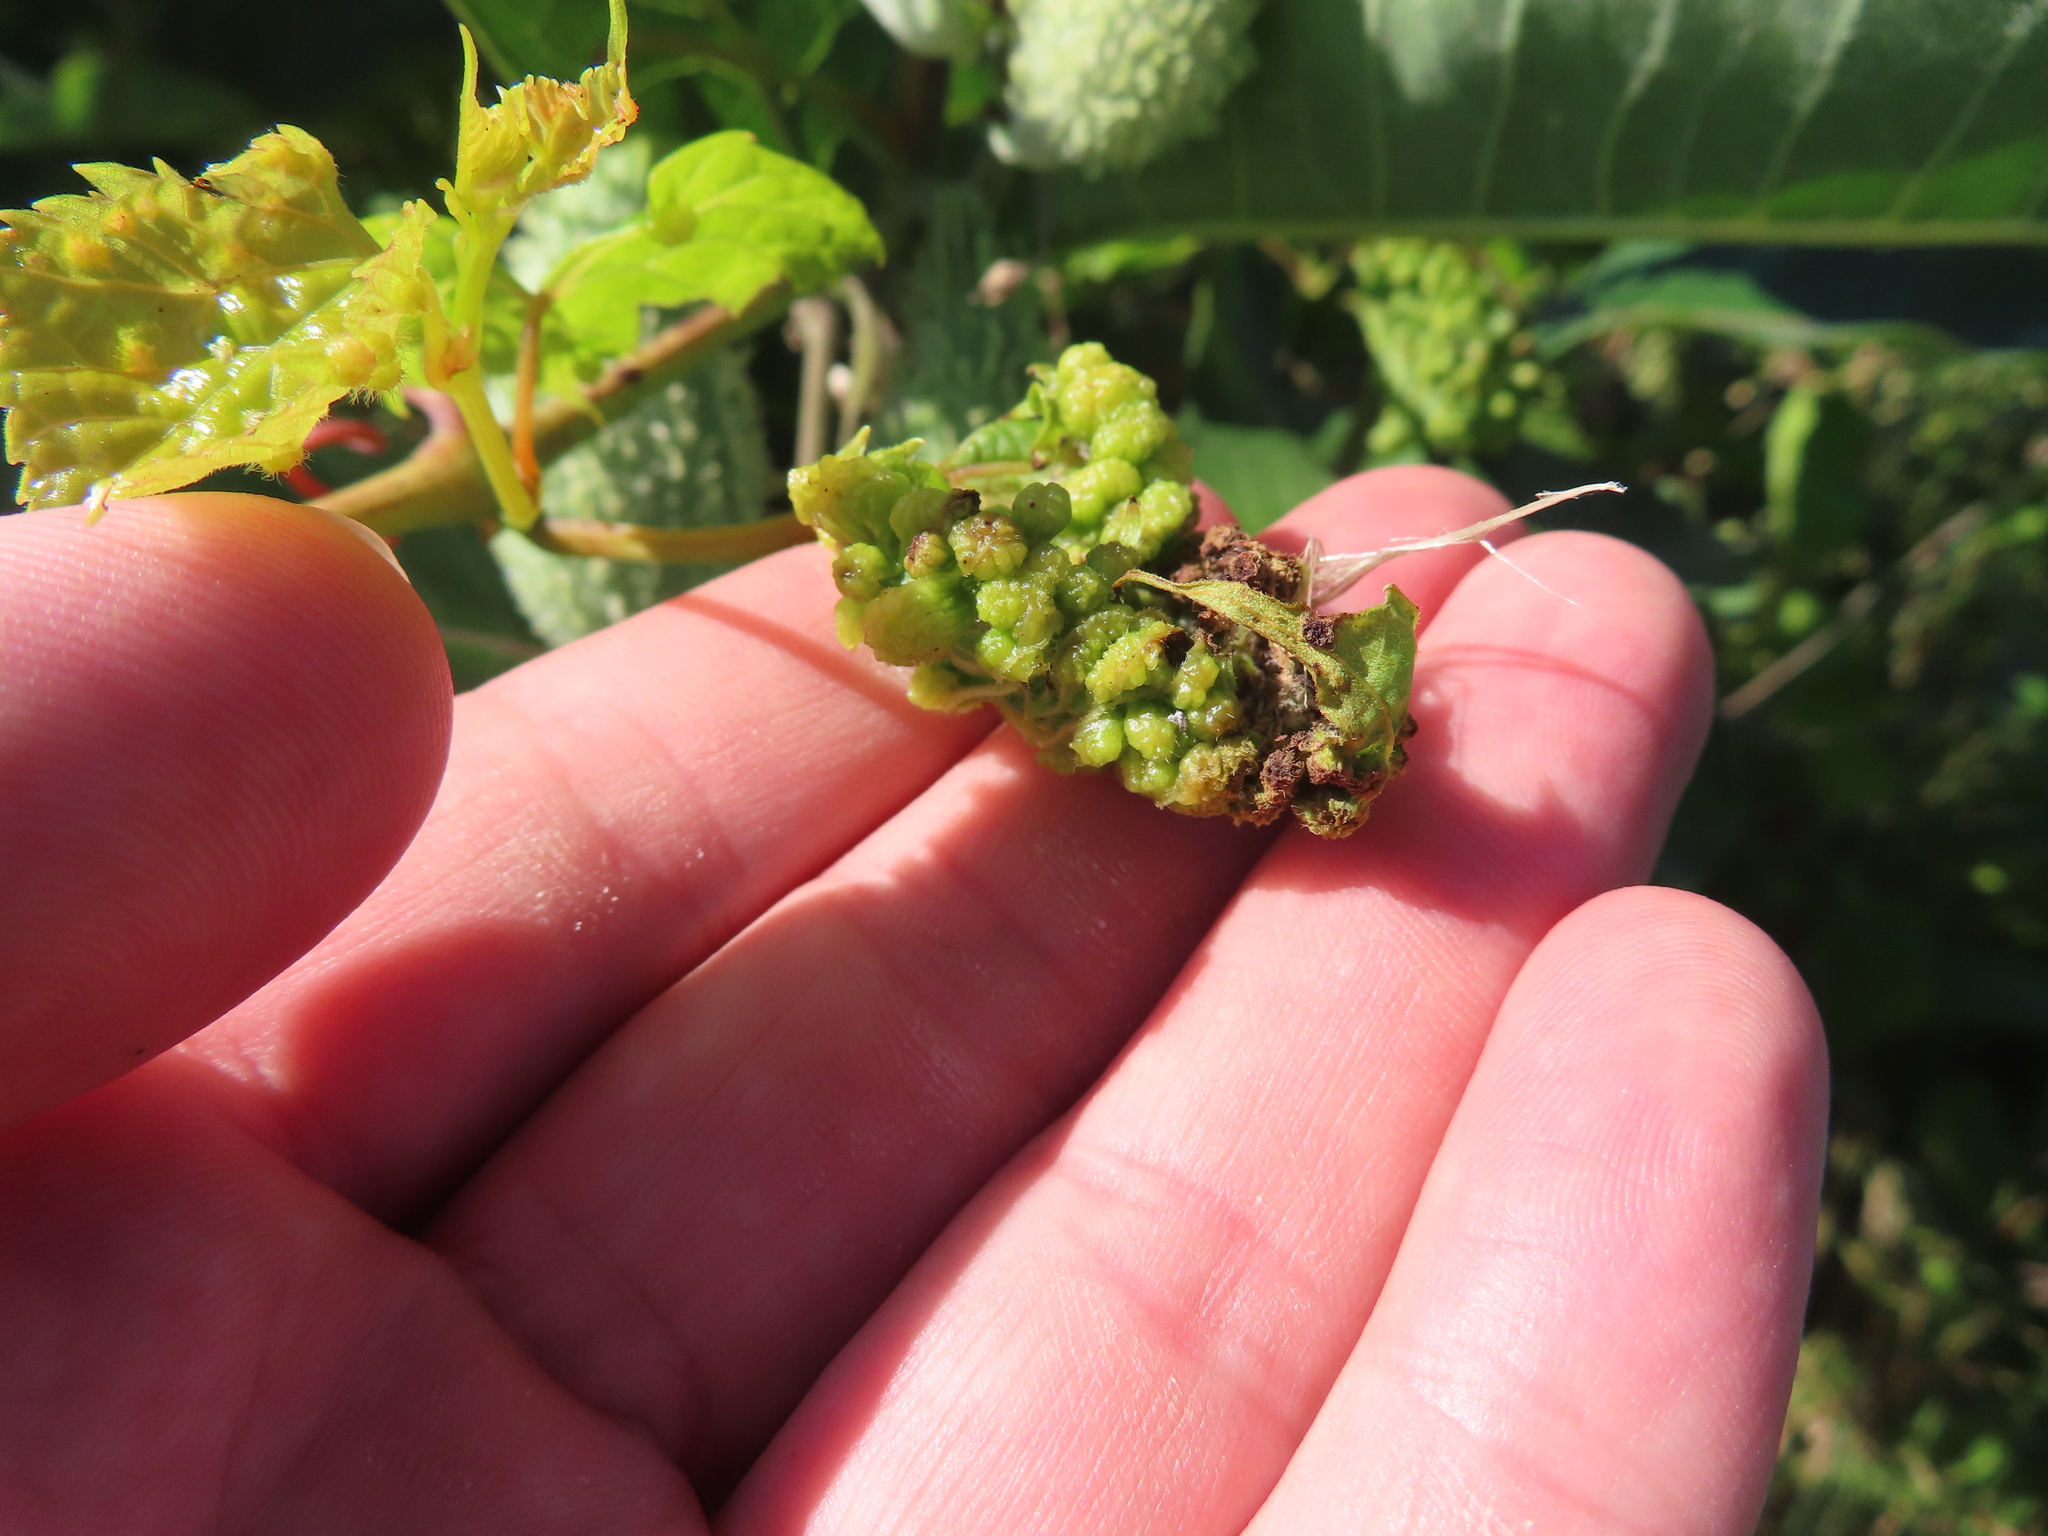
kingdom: Animalia
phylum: Arthropoda
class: Insecta
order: Hemiptera
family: Phylloxeridae
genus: Daktulosphaira
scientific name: Daktulosphaira vitifoliae
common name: Grape phylloxera
